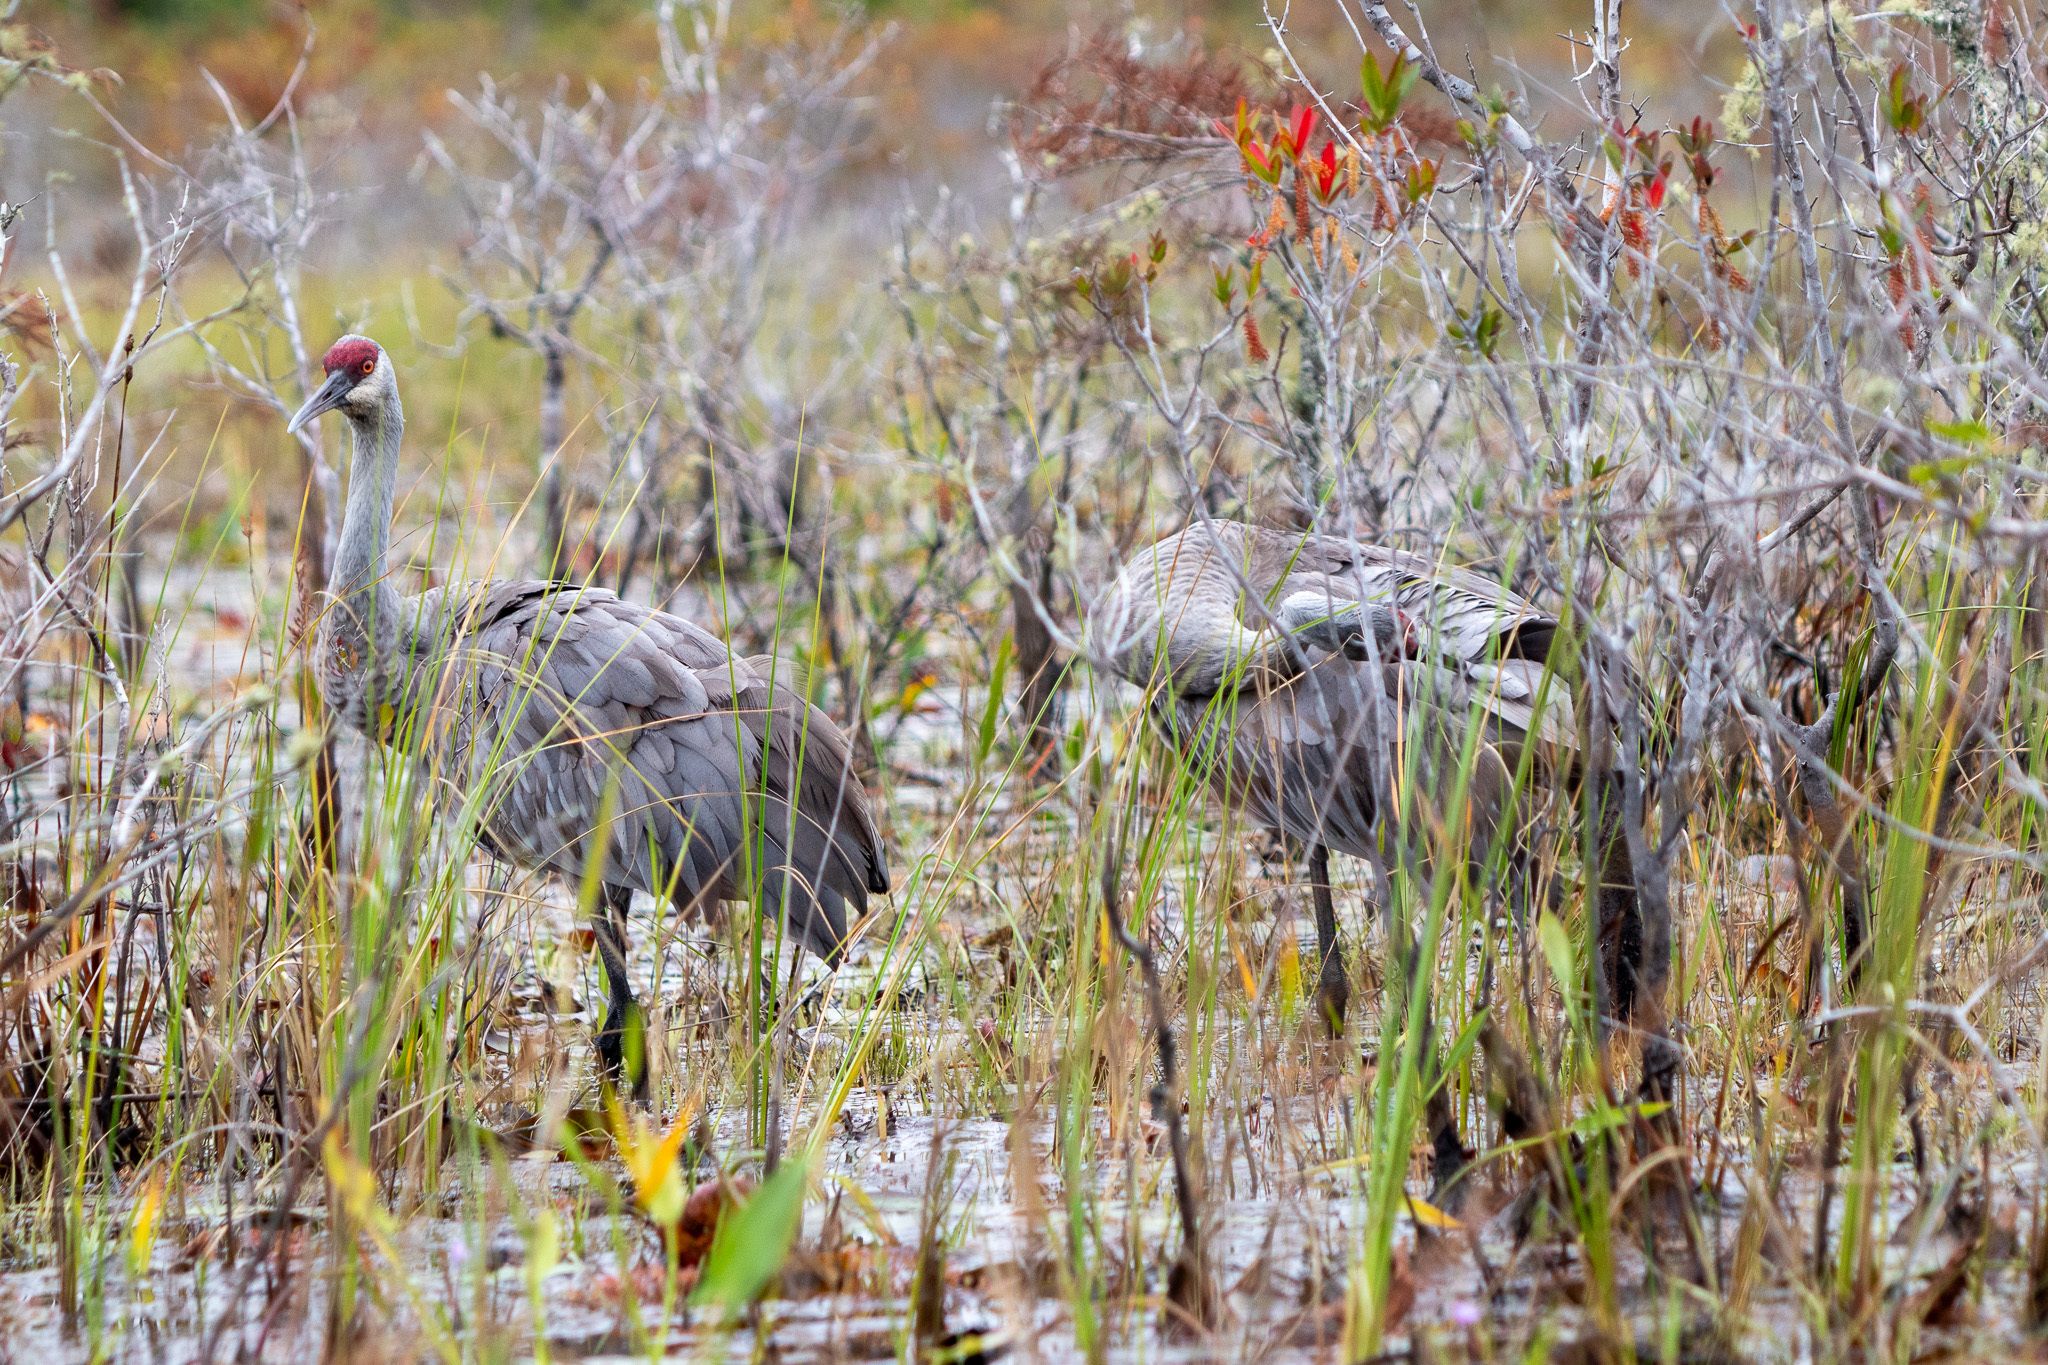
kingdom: Animalia
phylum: Chordata
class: Aves
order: Gruiformes
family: Gruidae
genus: Grus
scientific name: Grus canadensis
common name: Sandhill crane
